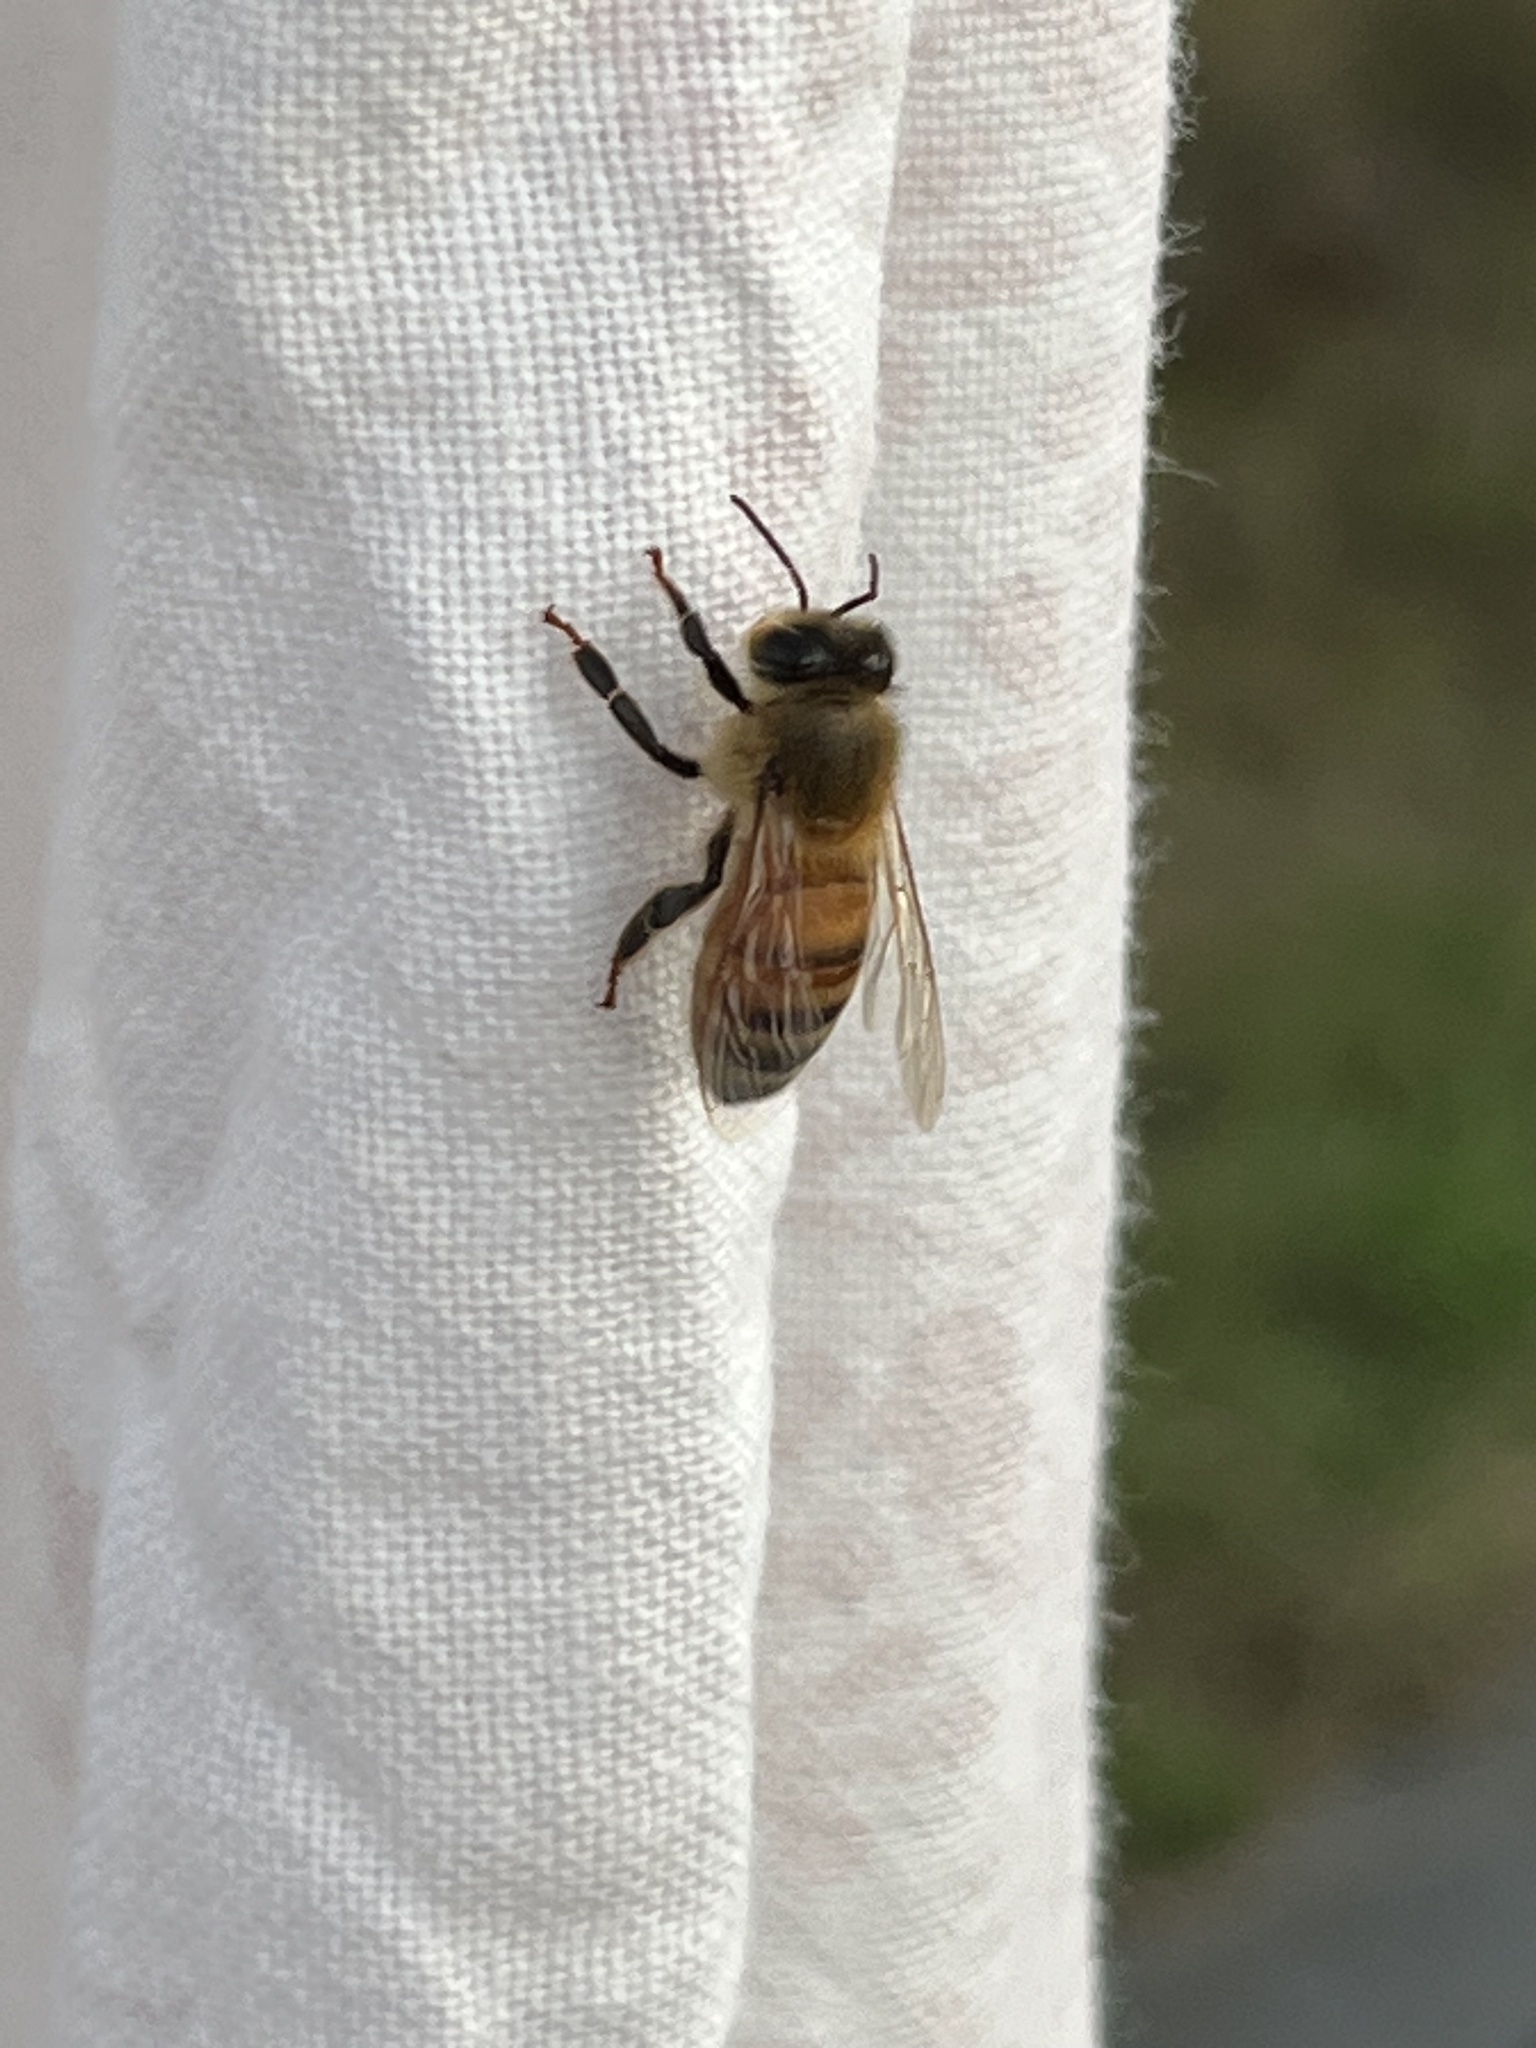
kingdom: Animalia
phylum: Arthropoda
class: Insecta
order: Hymenoptera
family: Apidae
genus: Apis
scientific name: Apis mellifera
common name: Honey bee
